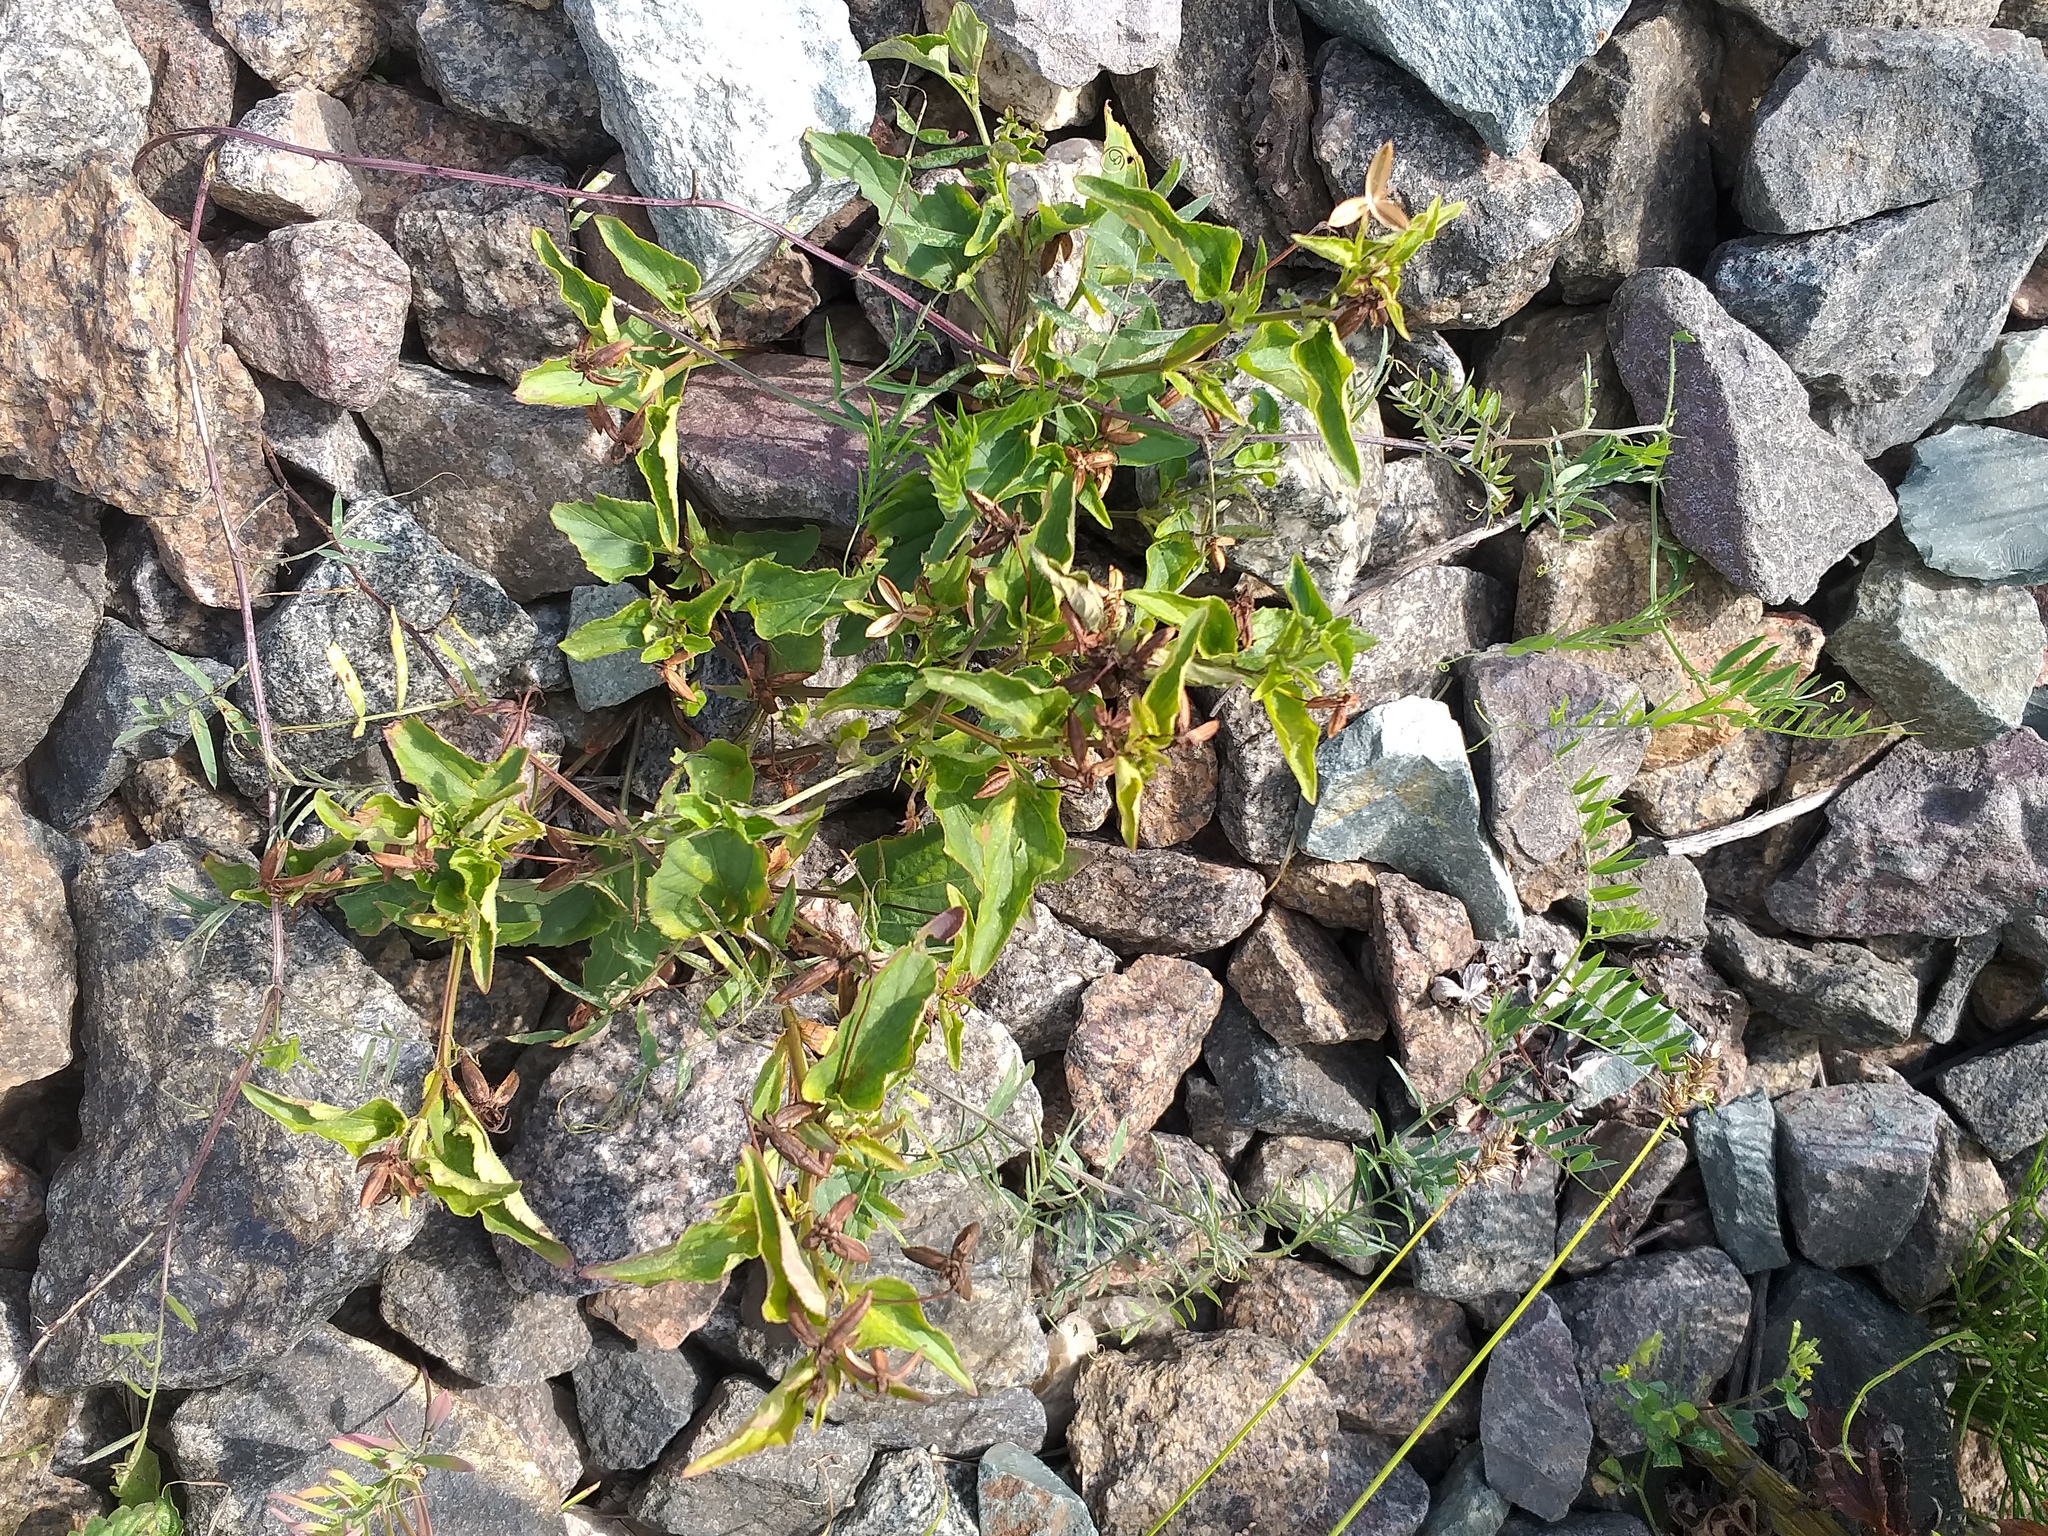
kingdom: Plantae
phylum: Tracheophyta
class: Magnoliopsida
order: Malpighiales
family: Violaceae
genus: Viola
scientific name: Viola canina
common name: Heath dog-violet
